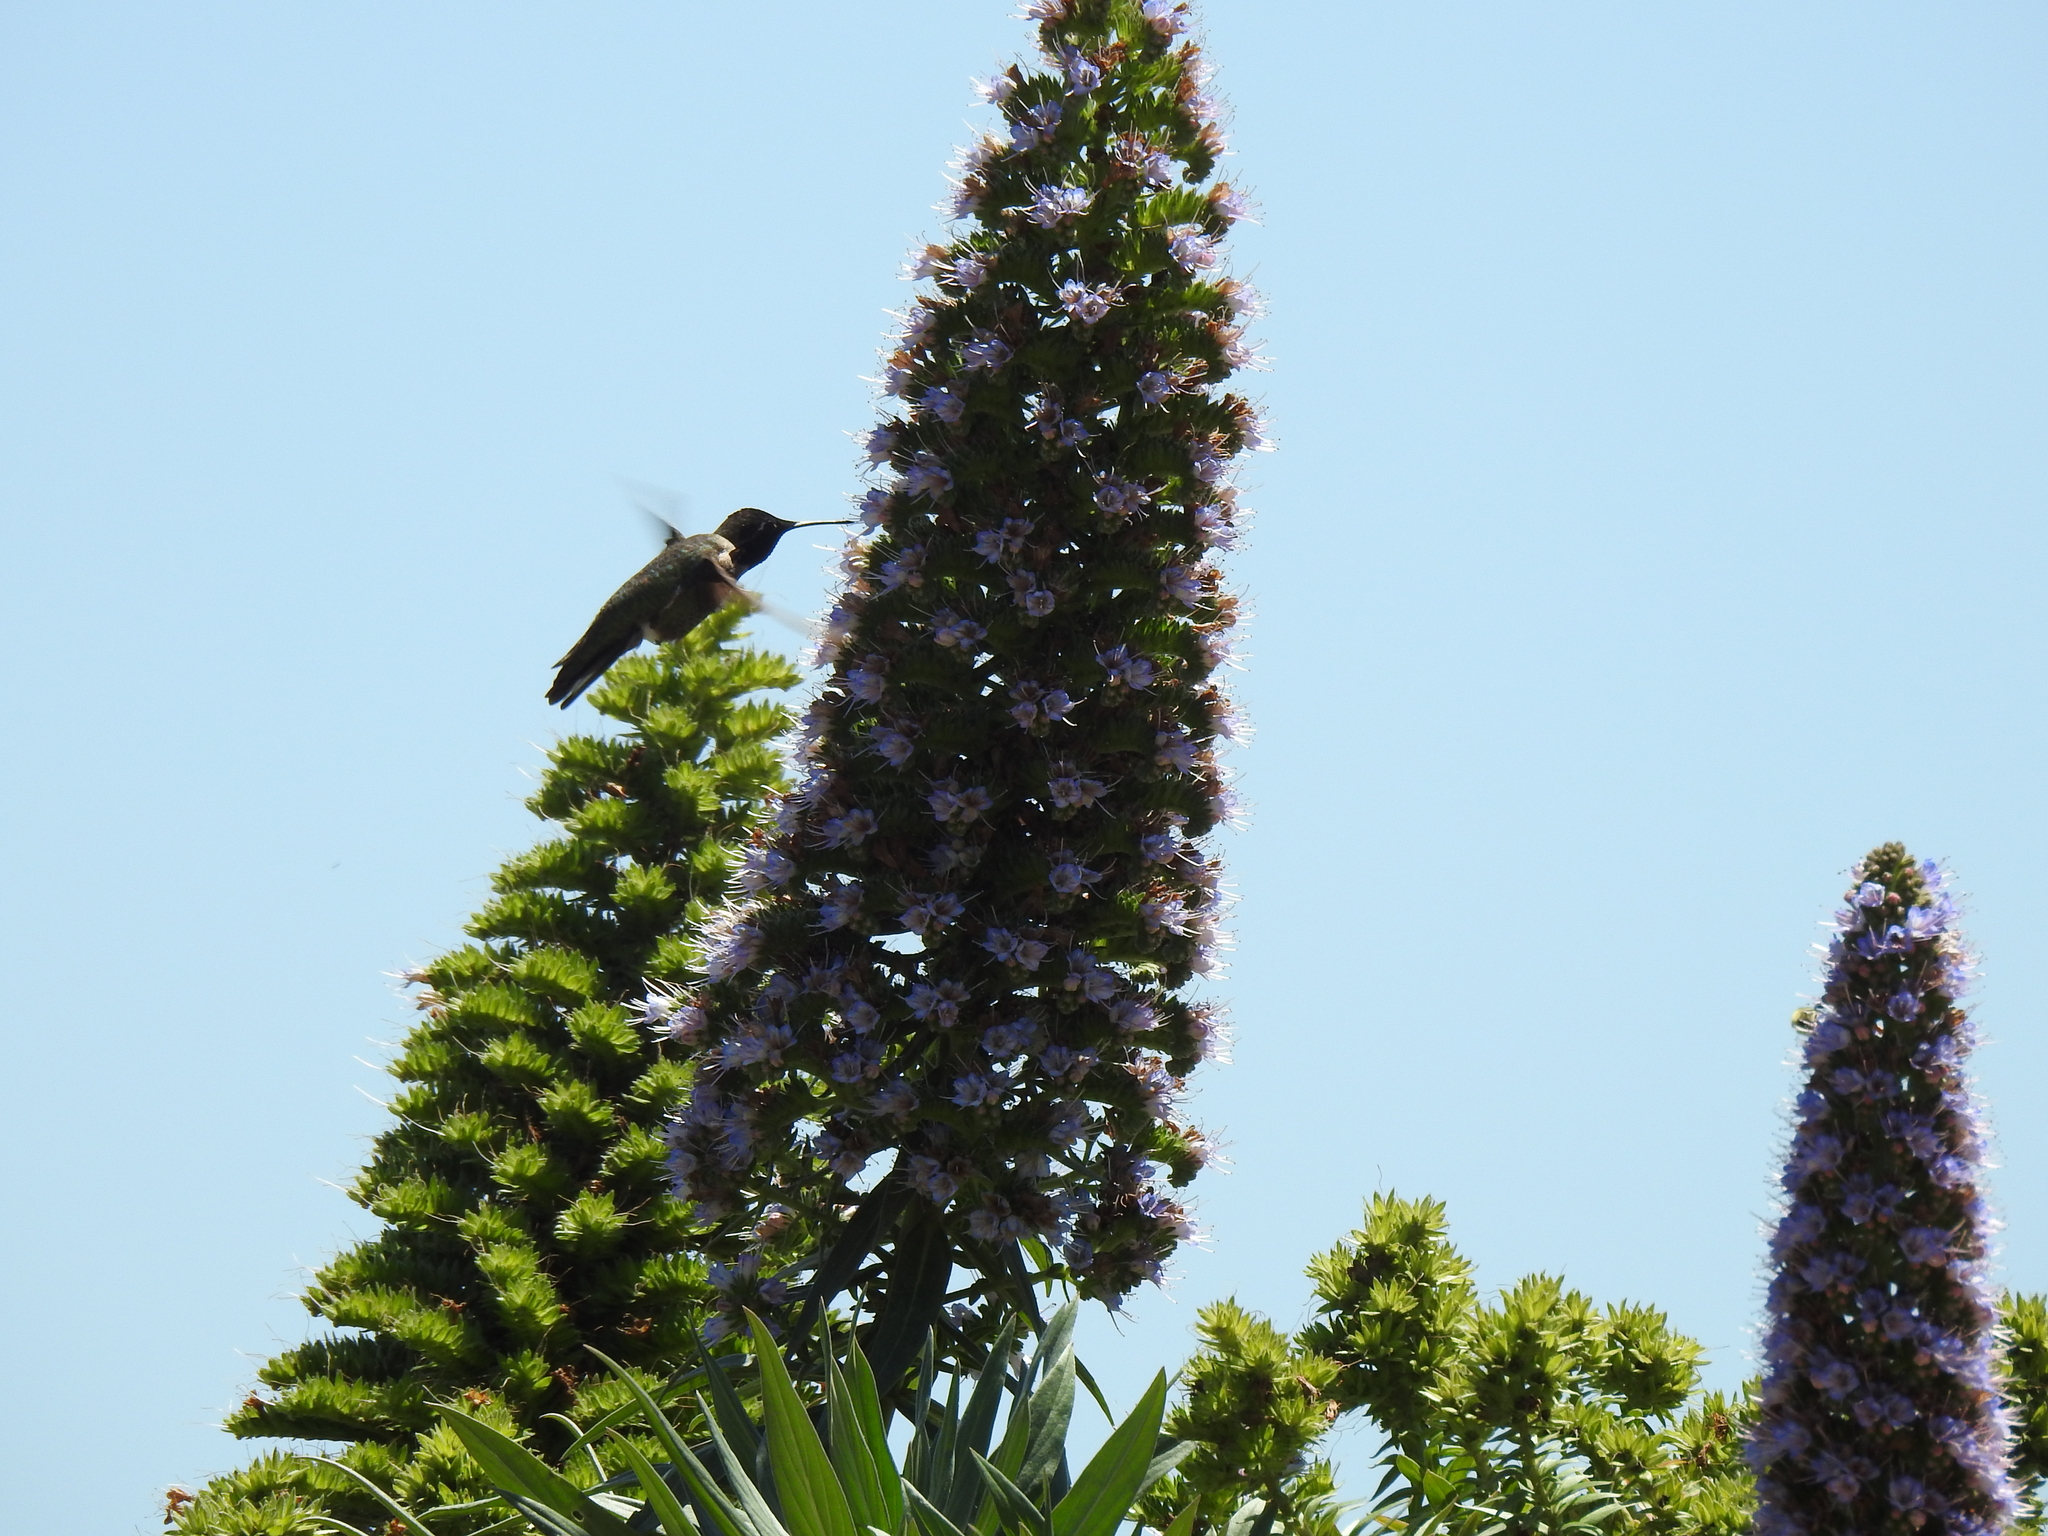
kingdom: Animalia
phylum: Chordata
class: Aves
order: Apodiformes
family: Trochilidae
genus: Calypte
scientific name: Calypte anna
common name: Anna's hummingbird
